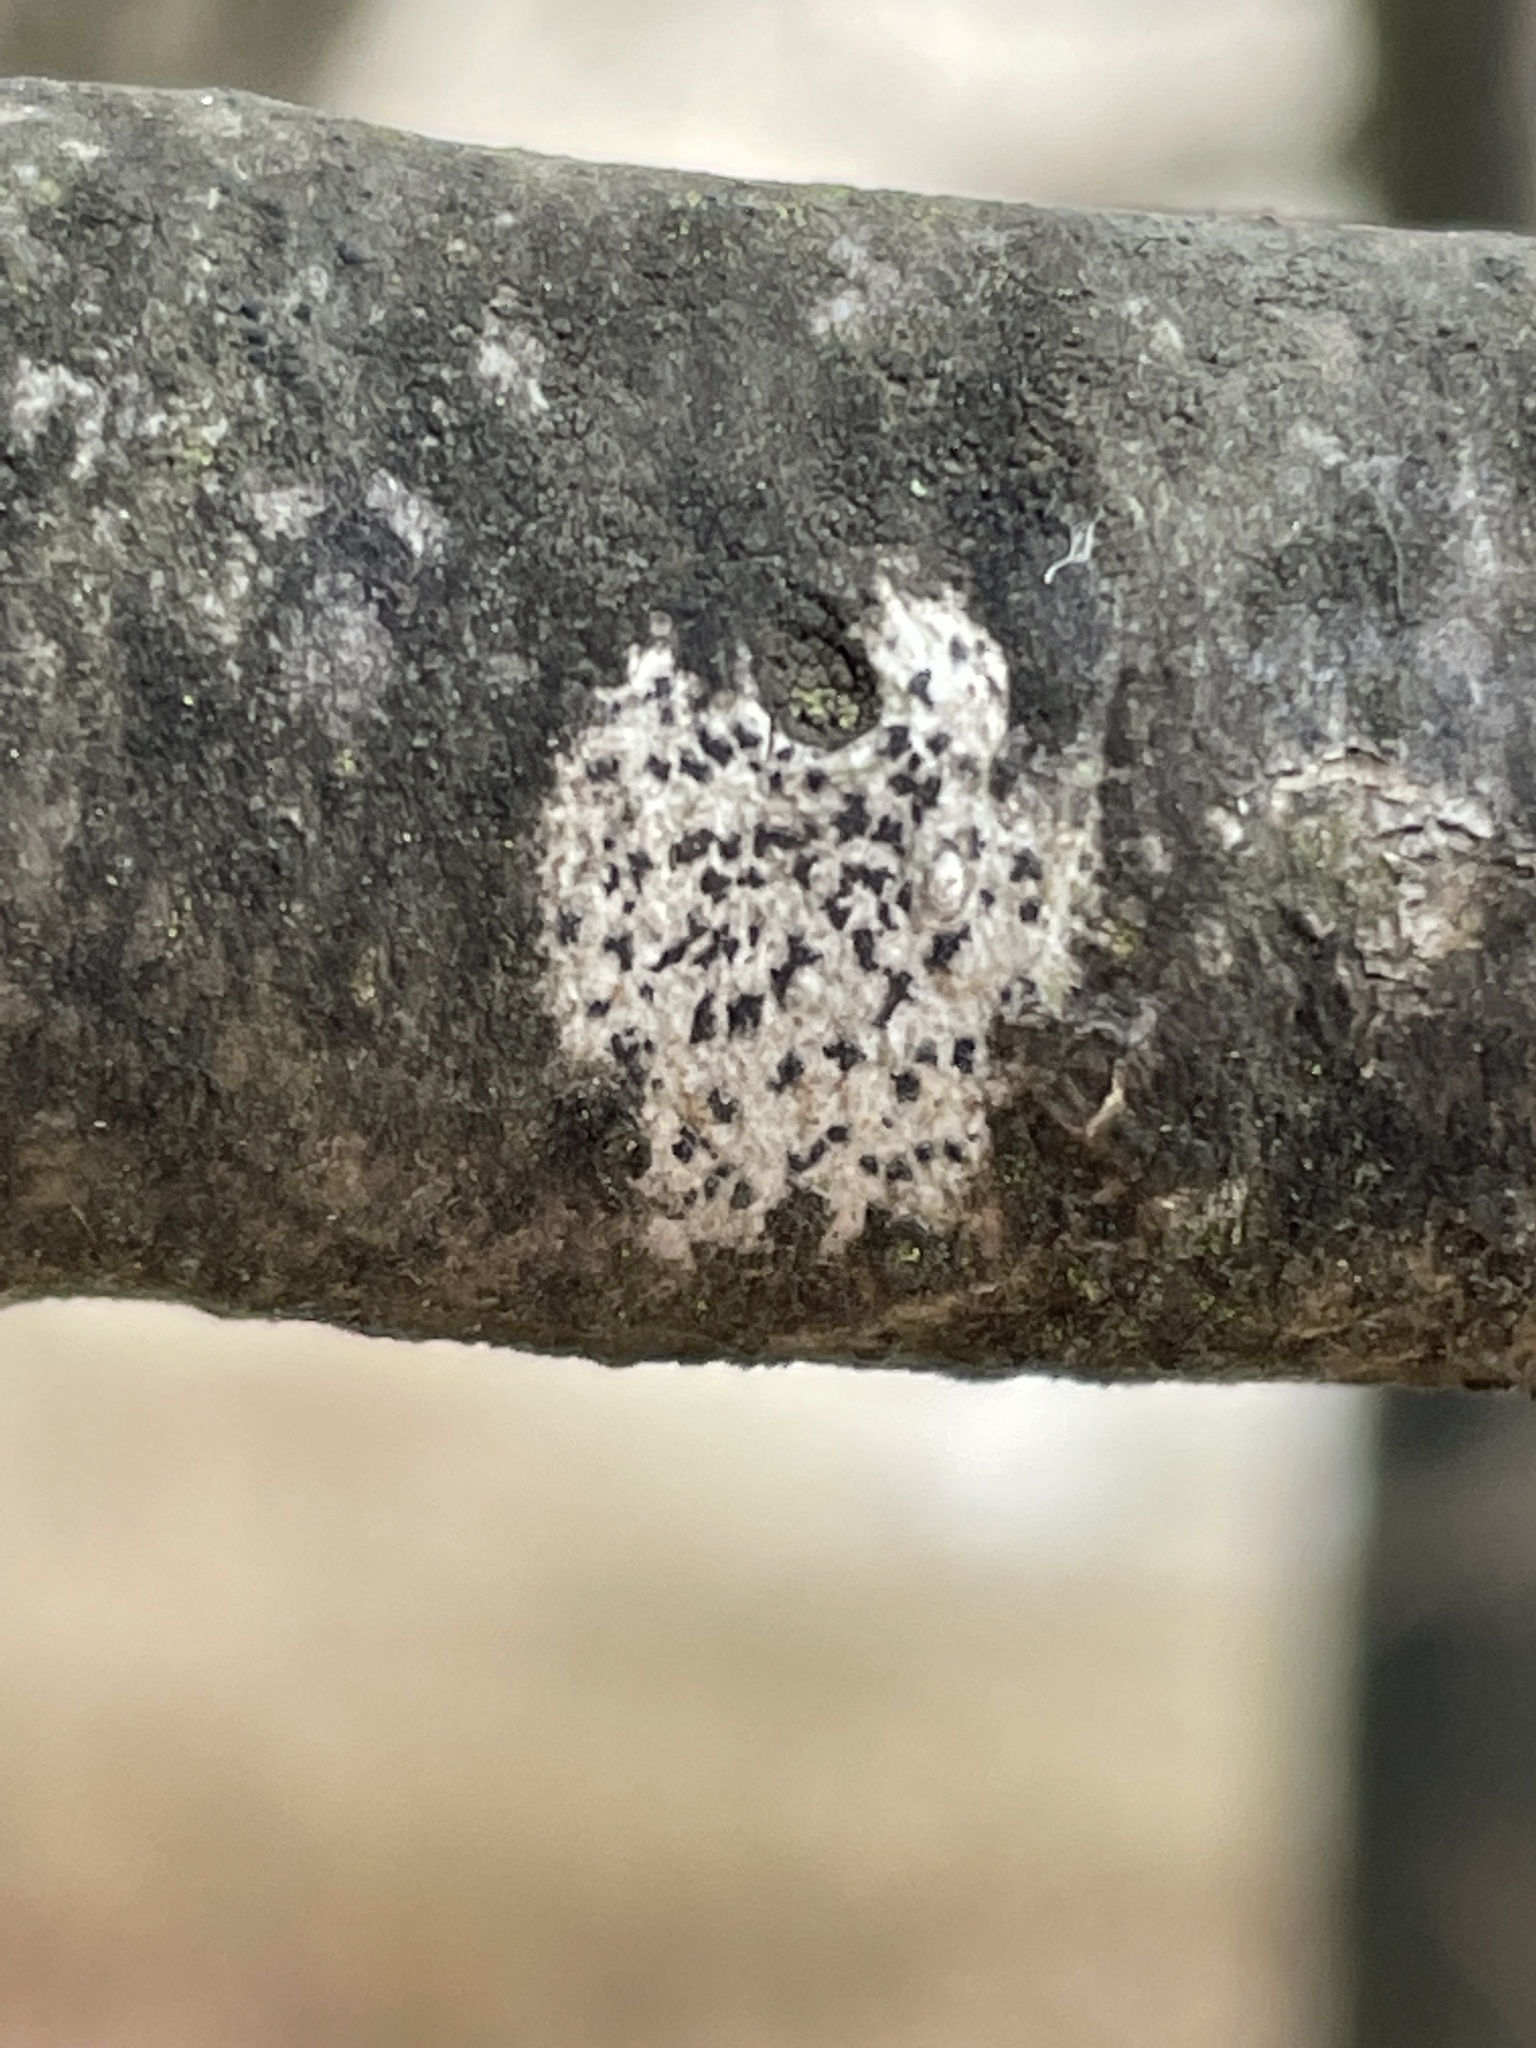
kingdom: Fungi
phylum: Ascomycota
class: Arthoniomycetes
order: Arthoniales
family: Arthoniaceae
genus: Arthonia
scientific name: Arthonia radiata
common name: Asterisk lichen
